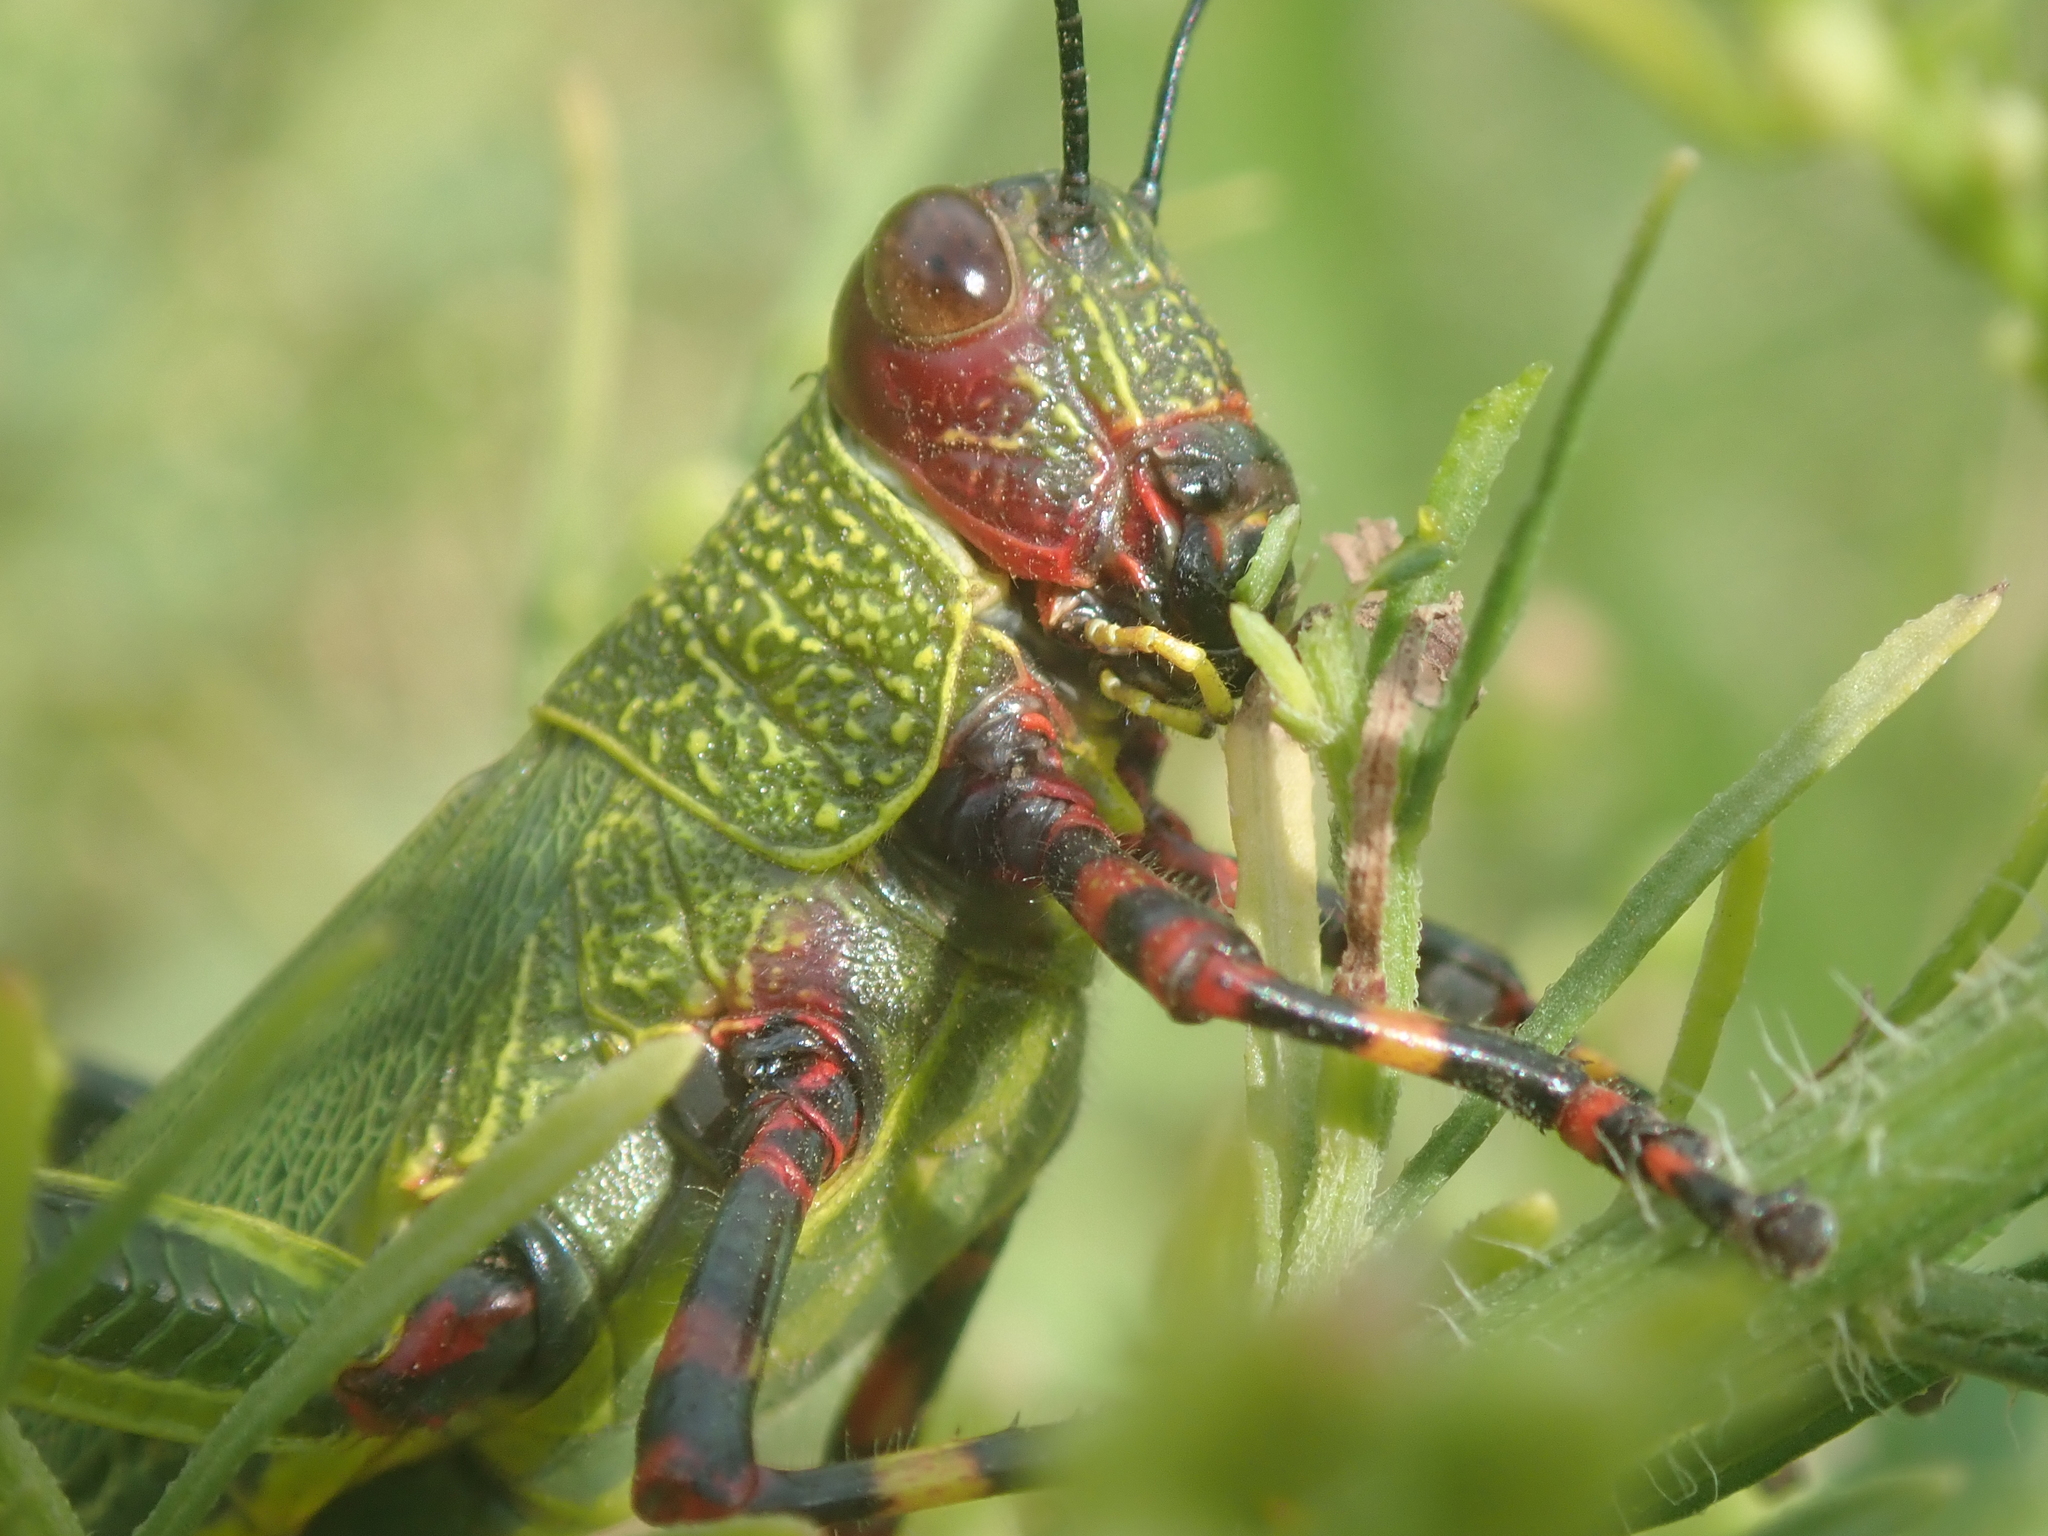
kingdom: Animalia
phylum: Arthropoda
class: Insecta
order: Orthoptera
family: Romaleidae
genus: Zoniopoda
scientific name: Zoniopoda tarsata
